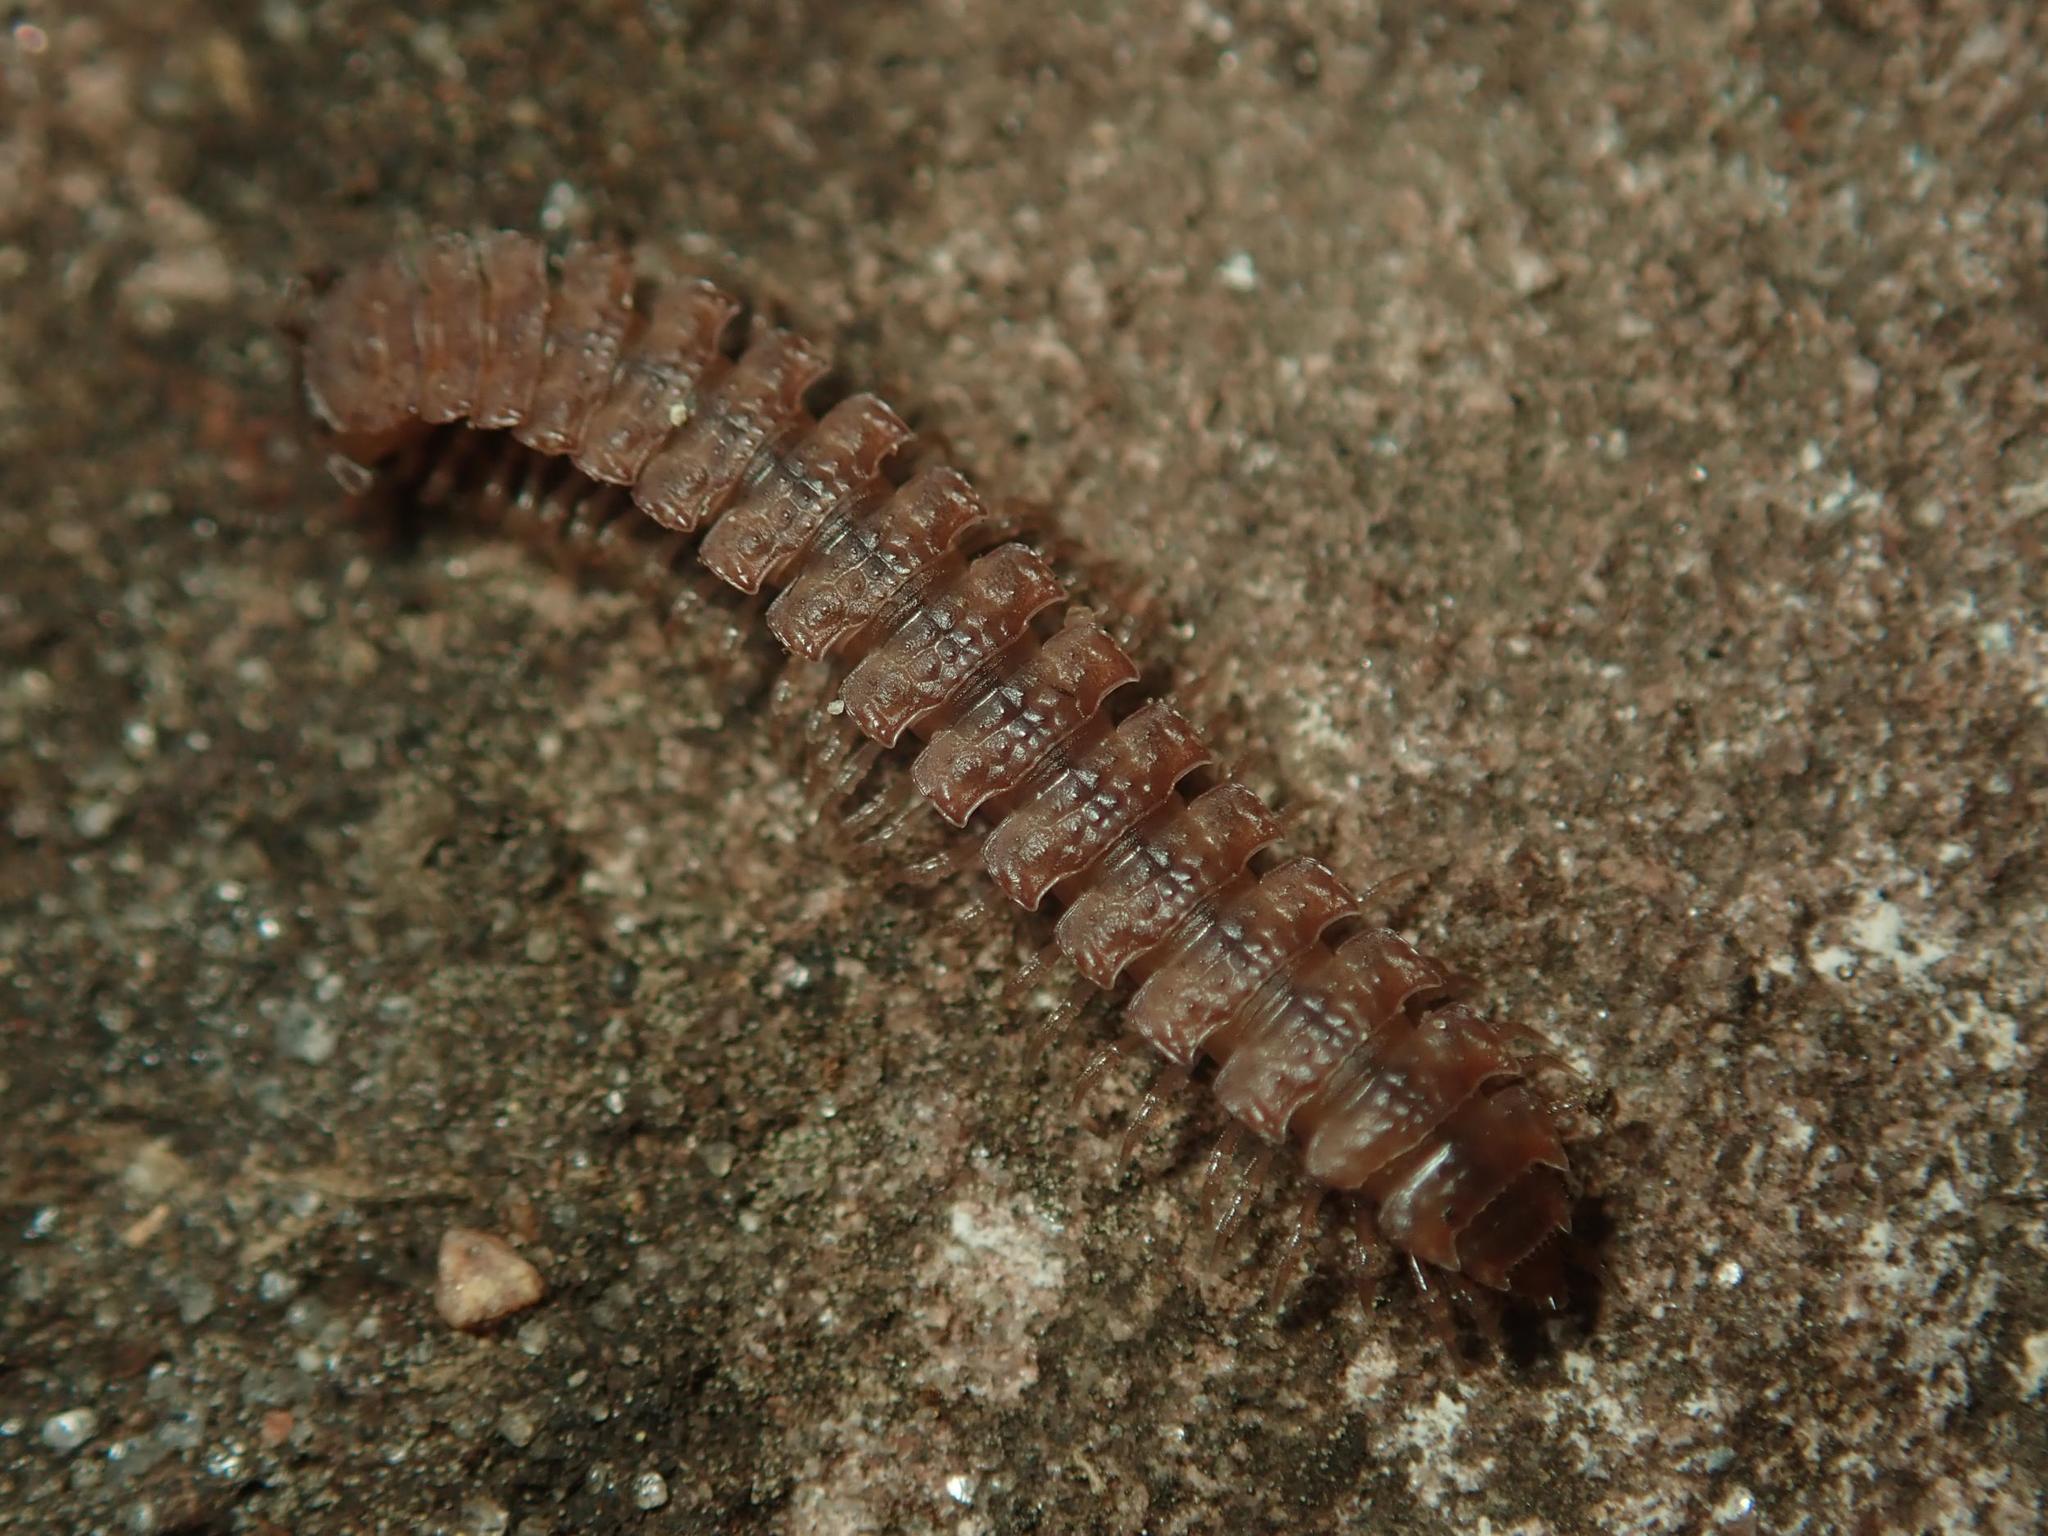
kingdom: Animalia
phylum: Arthropoda
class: Diplopoda
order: Polydesmida
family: Polydesmidae
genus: Polydesmus
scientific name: Polydesmus angustus
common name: Flat millipede
